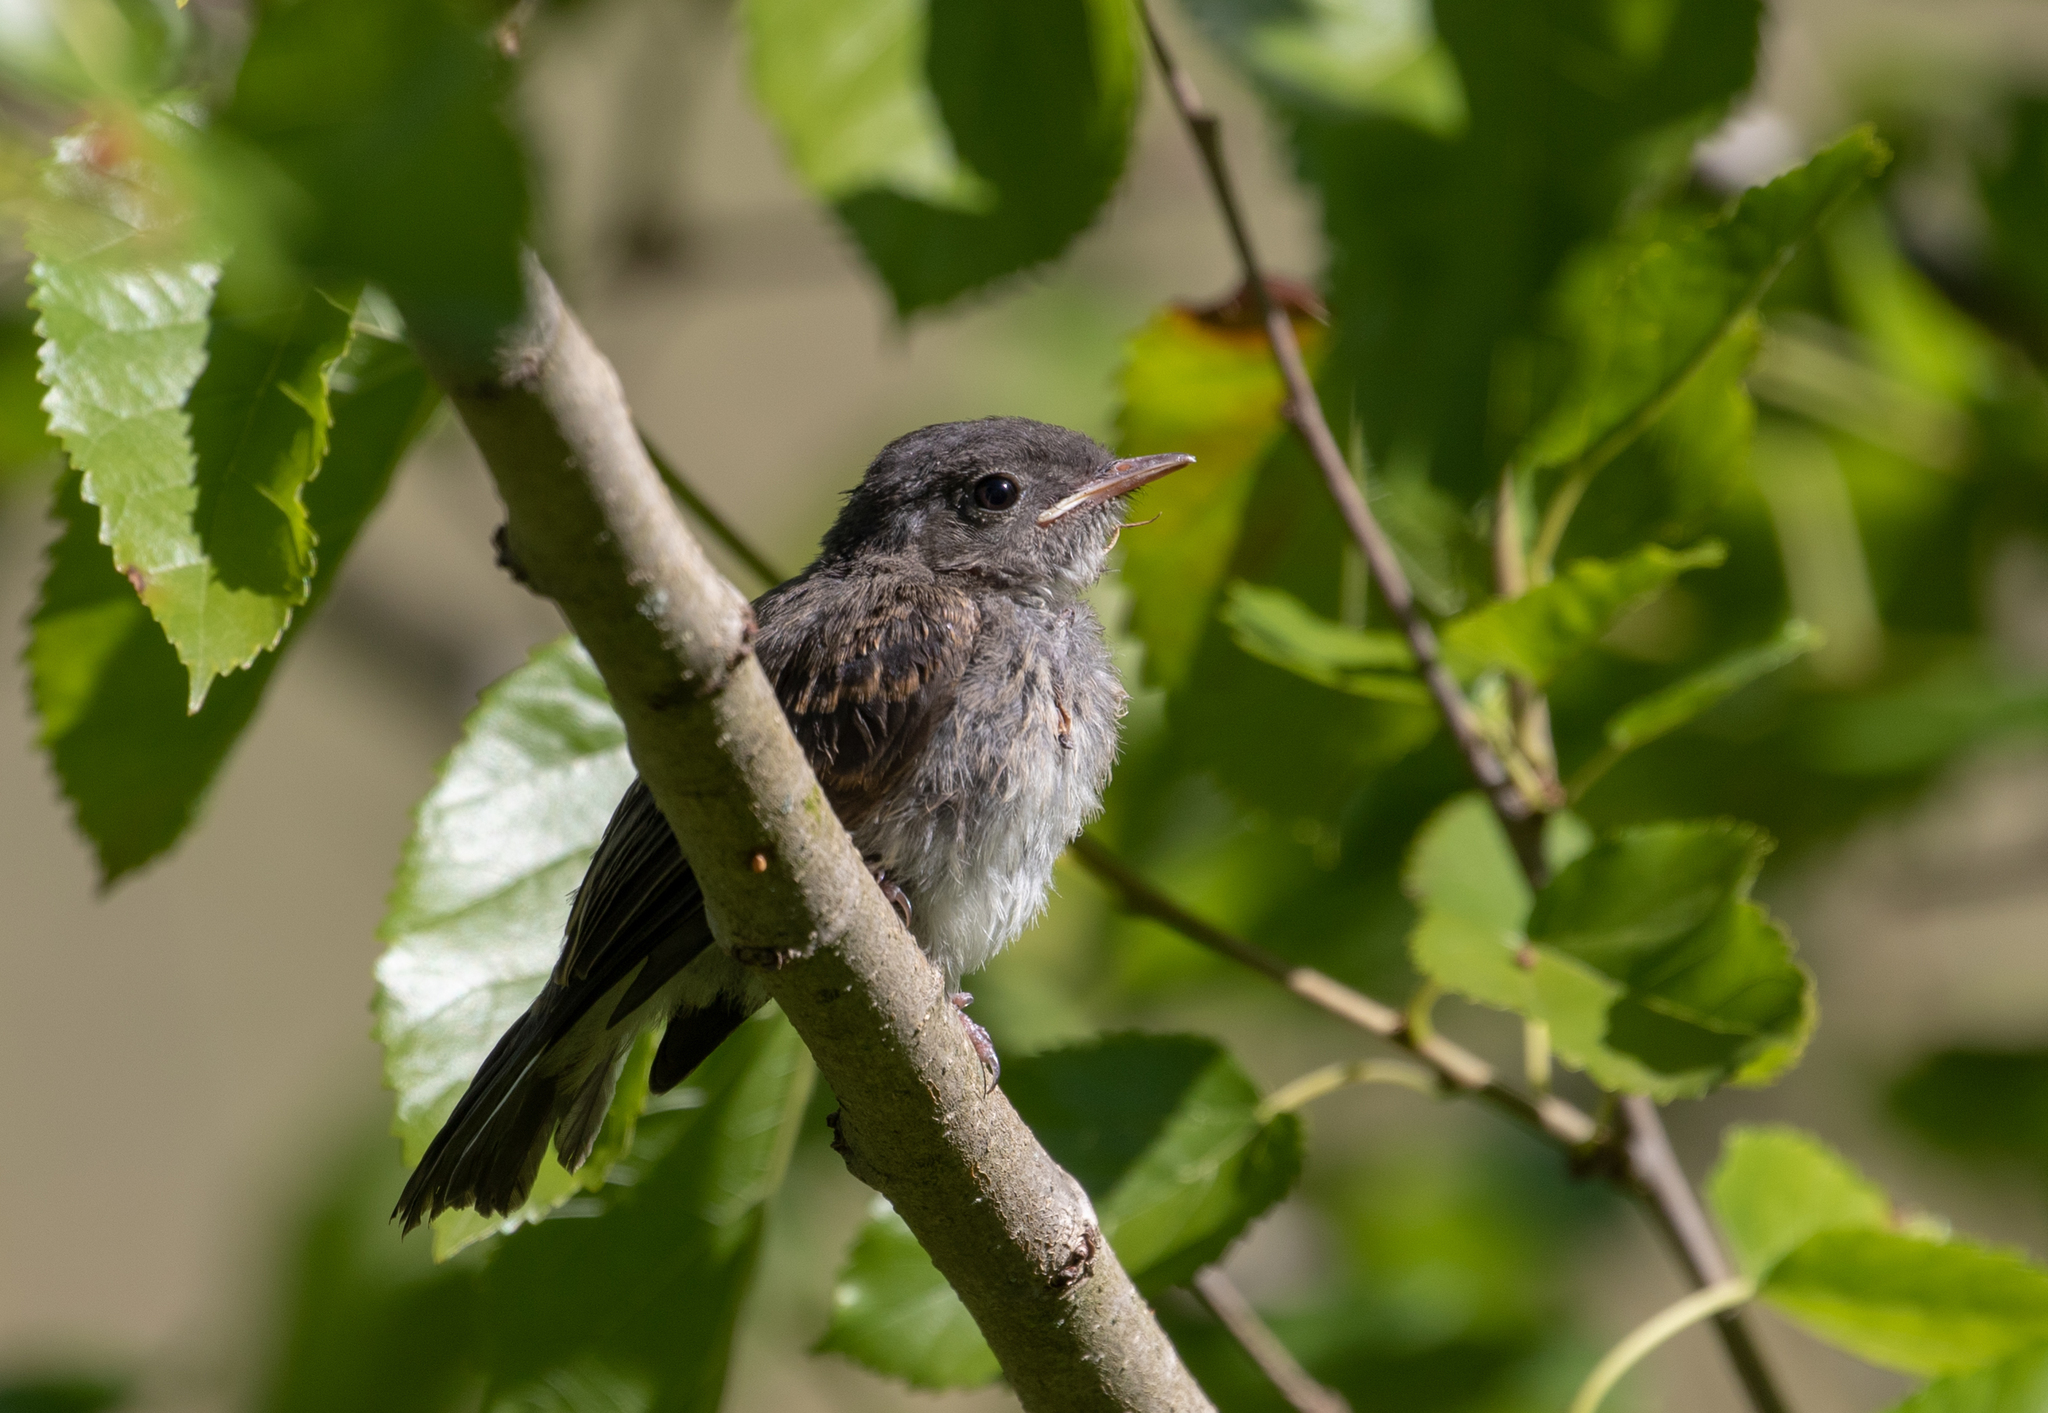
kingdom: Animalia
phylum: Chordata
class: Aves
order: Passeriformes
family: Tyrannidae
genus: Sayornis
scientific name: Sayornis phoebe
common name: Eastern phoebe
